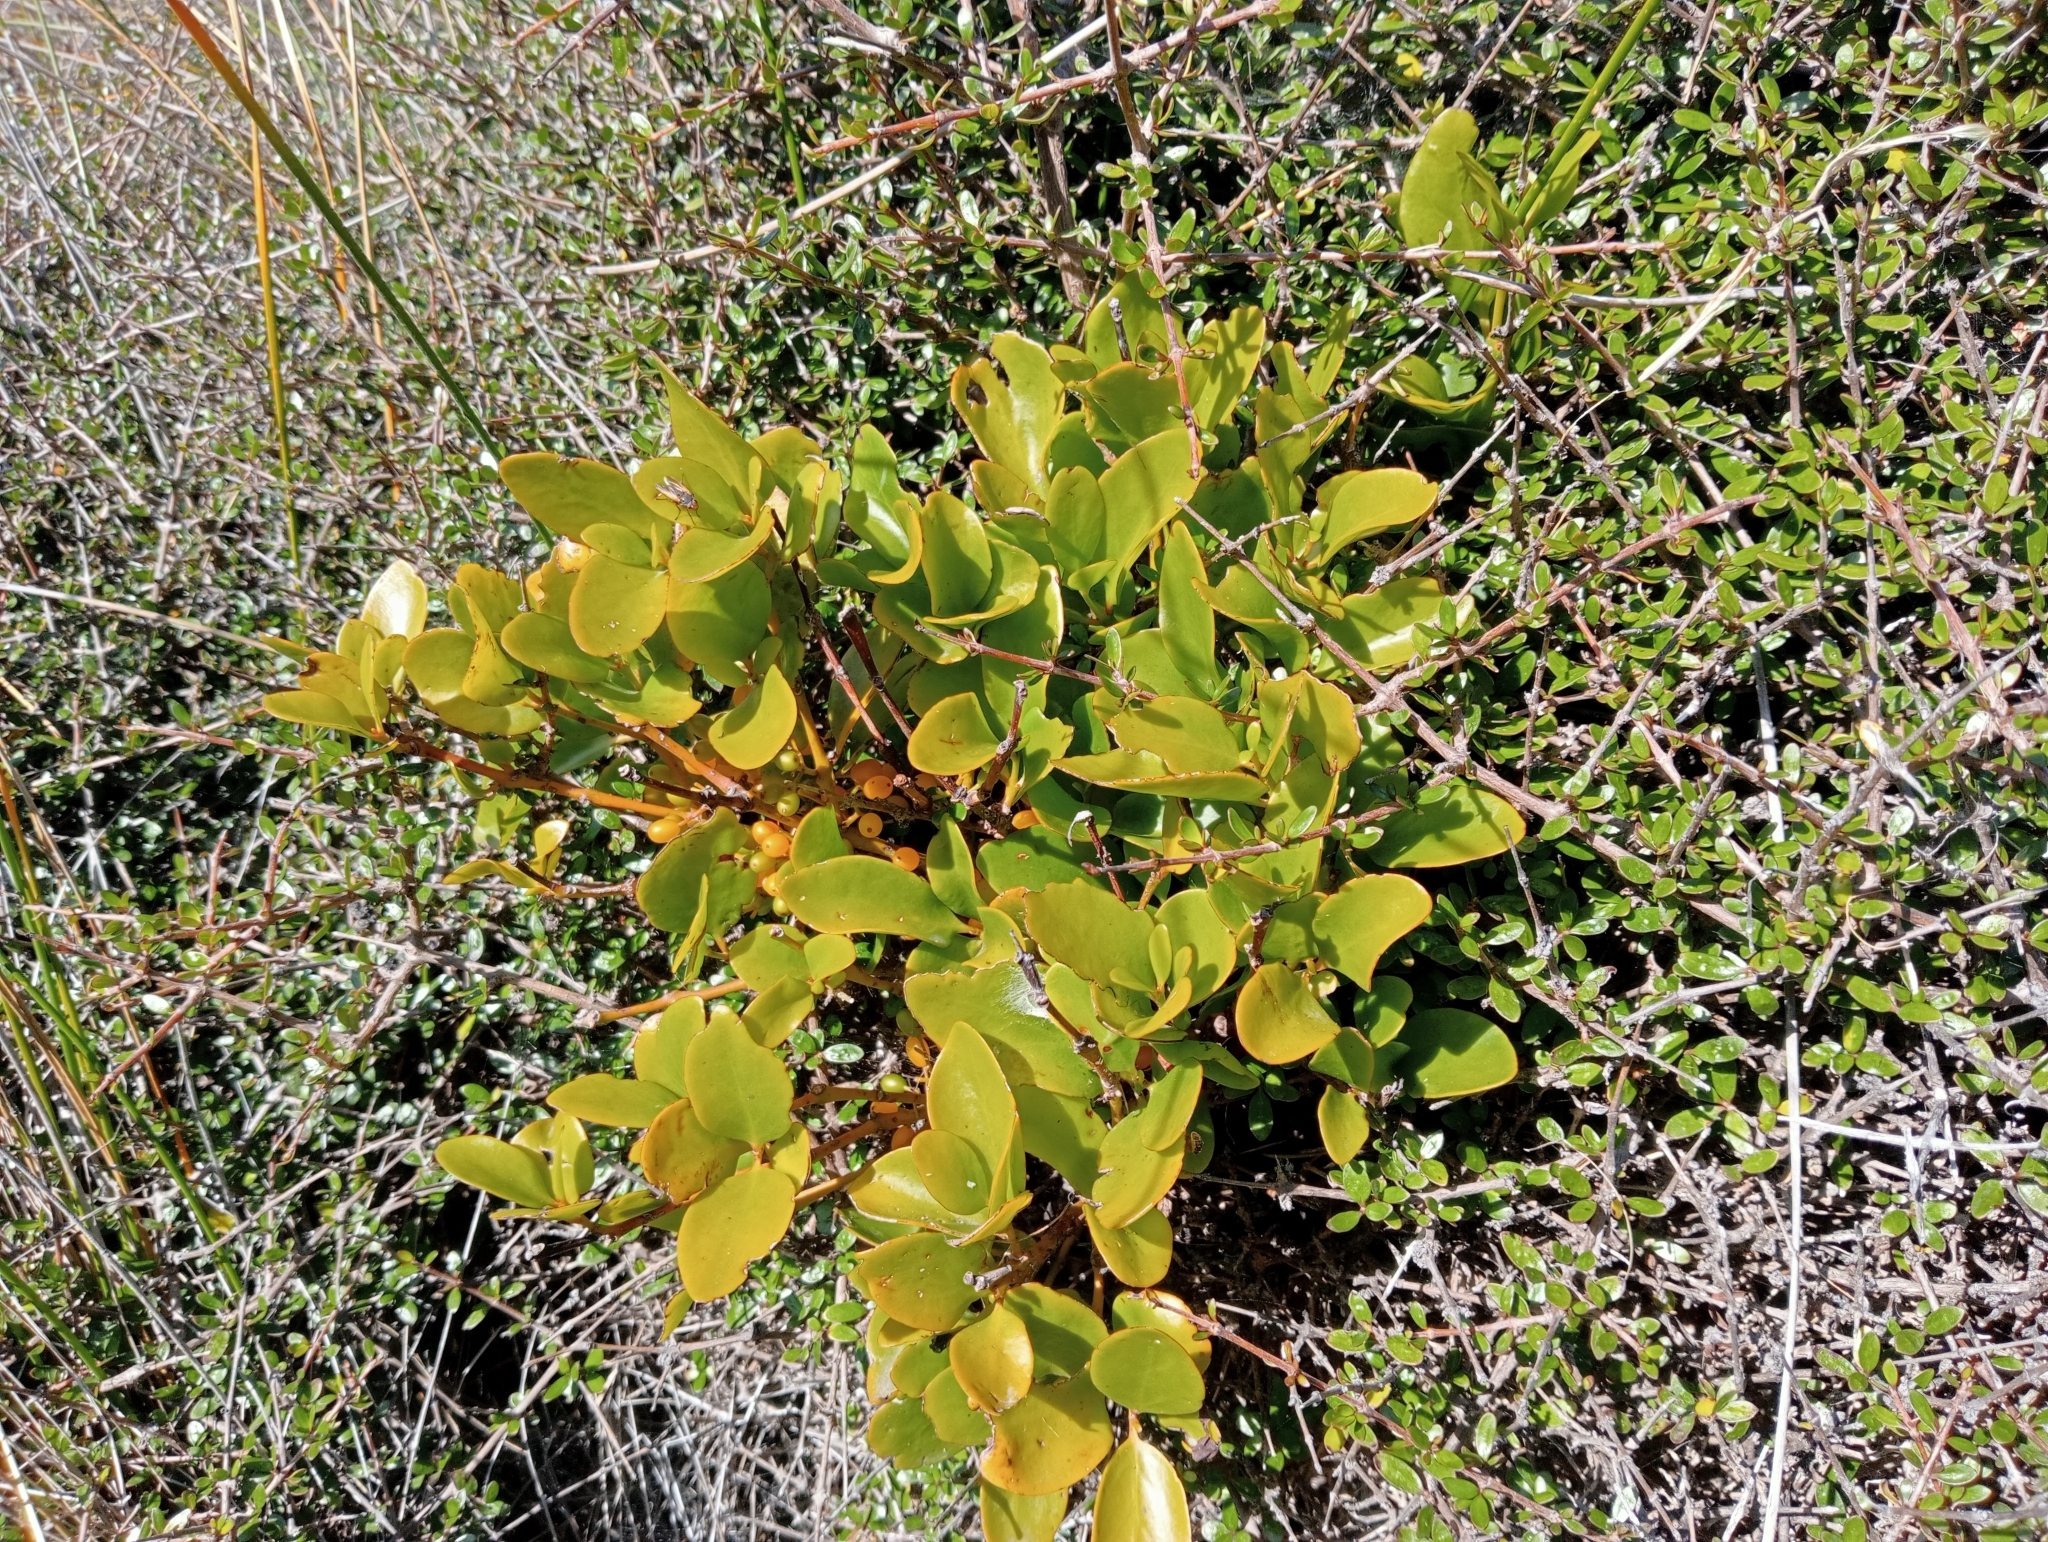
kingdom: Plantae
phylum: Tracheophyta
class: Magnoliopsida
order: Santalales
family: Loranthaceae
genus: Ileostylus
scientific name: Ileostylus micranthus
